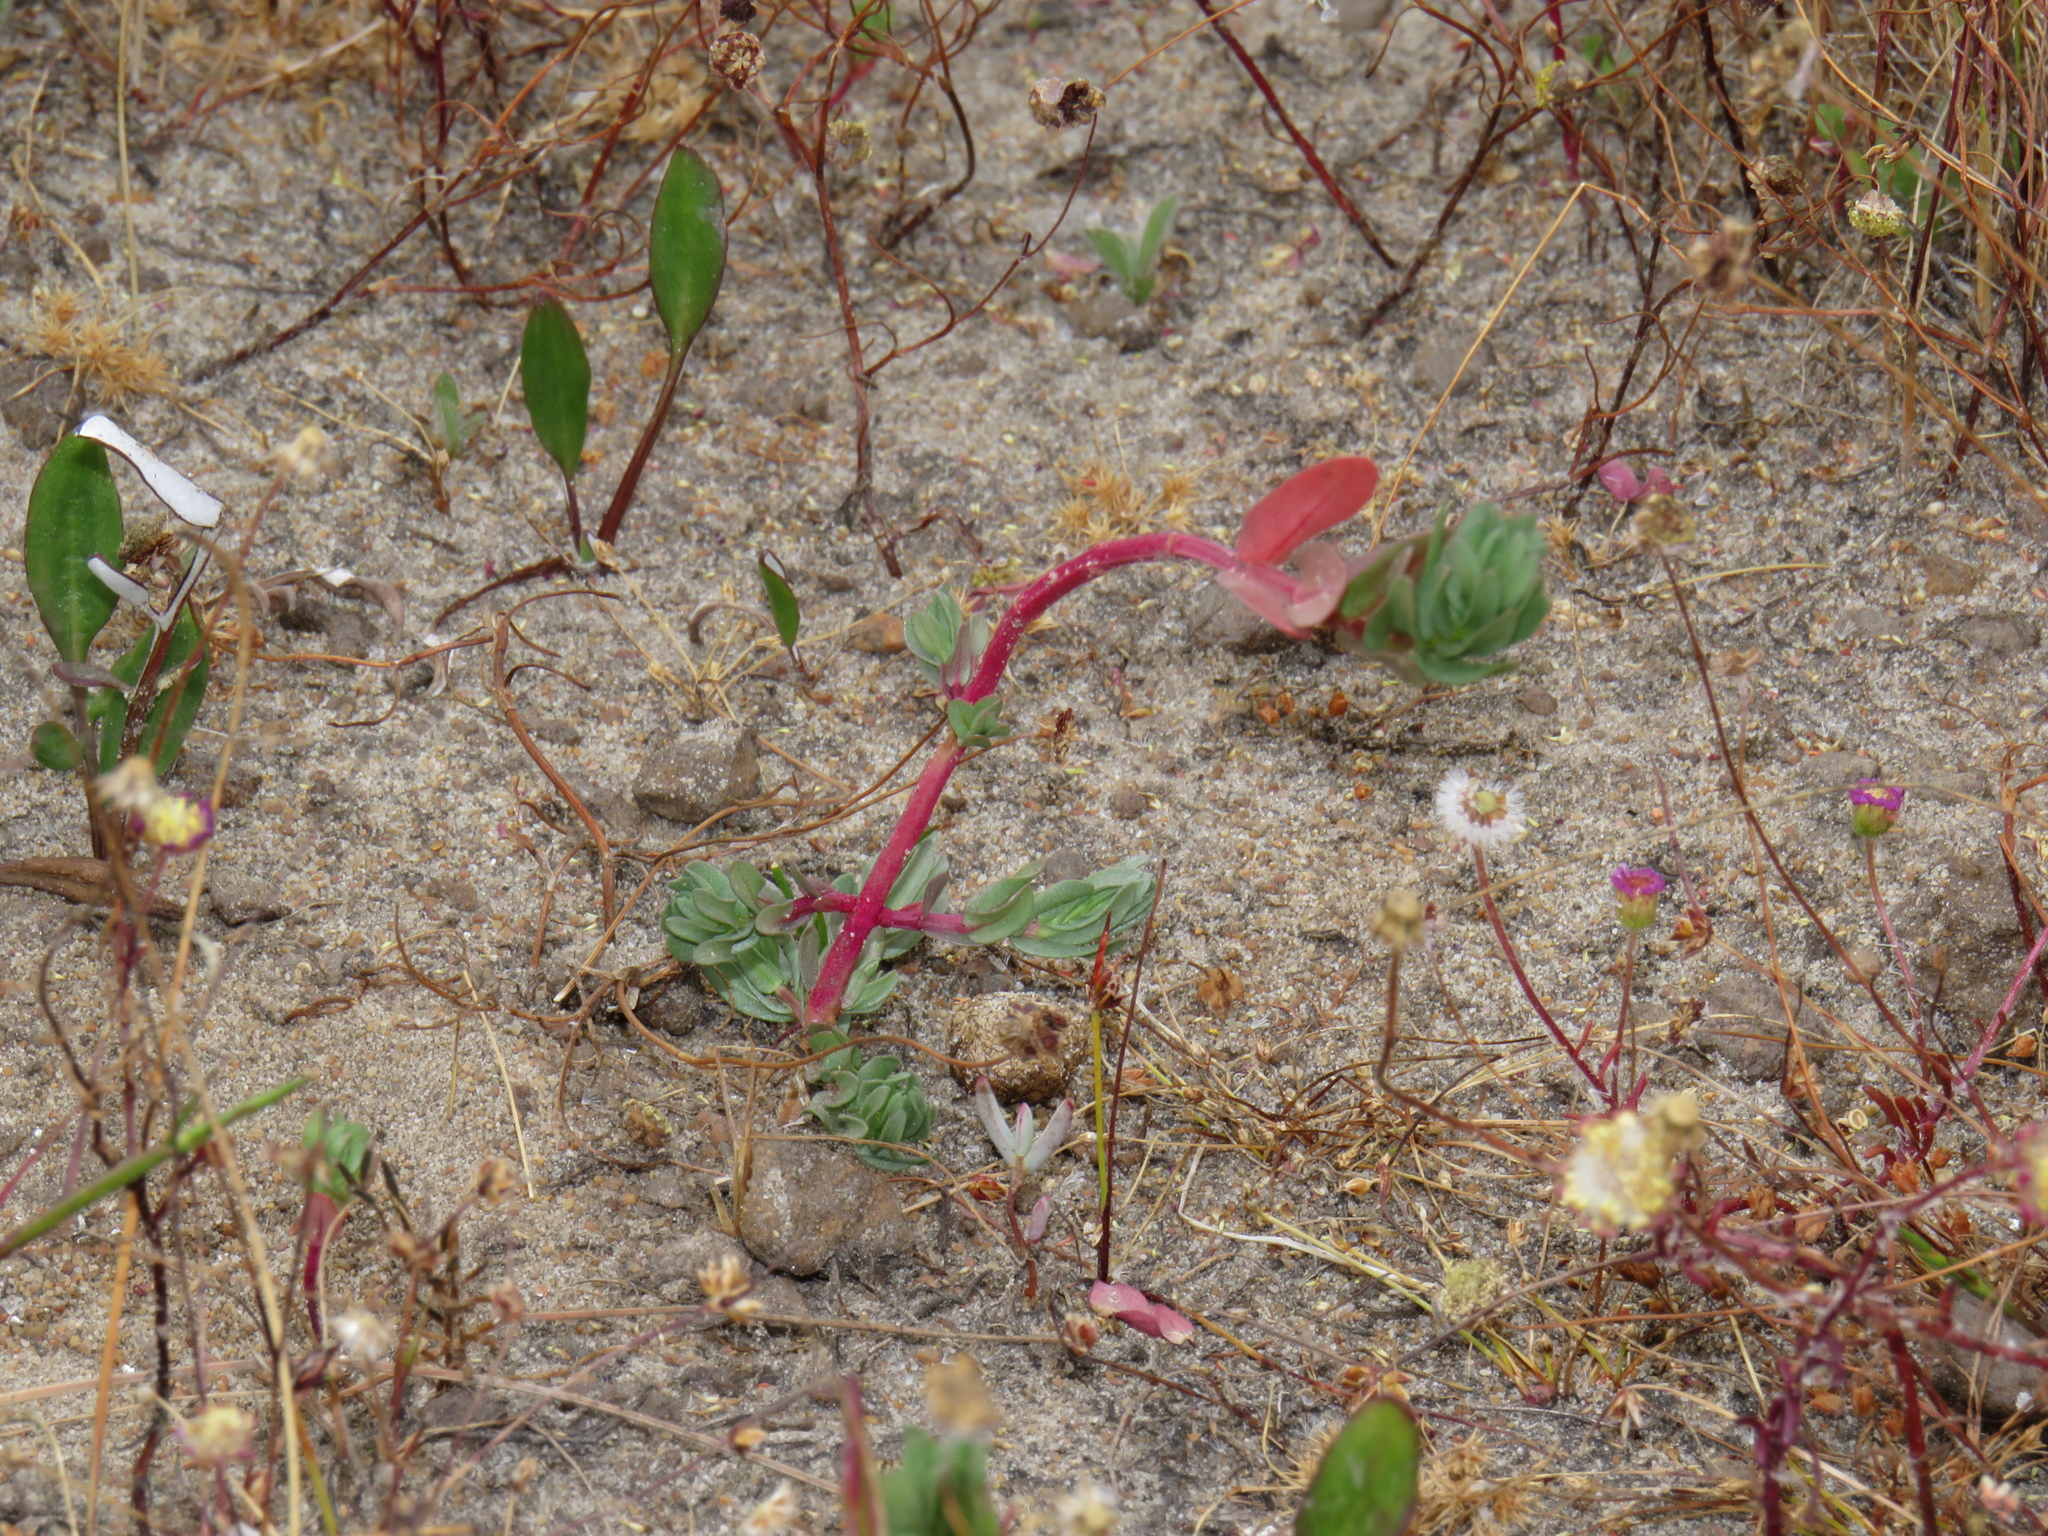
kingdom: Plantae
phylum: Tracheophyta
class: Magnoliopsida
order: Myrtales
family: Lythraceae
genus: Lythrum
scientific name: Lythrum hyssopifolia
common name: Grass-poly
